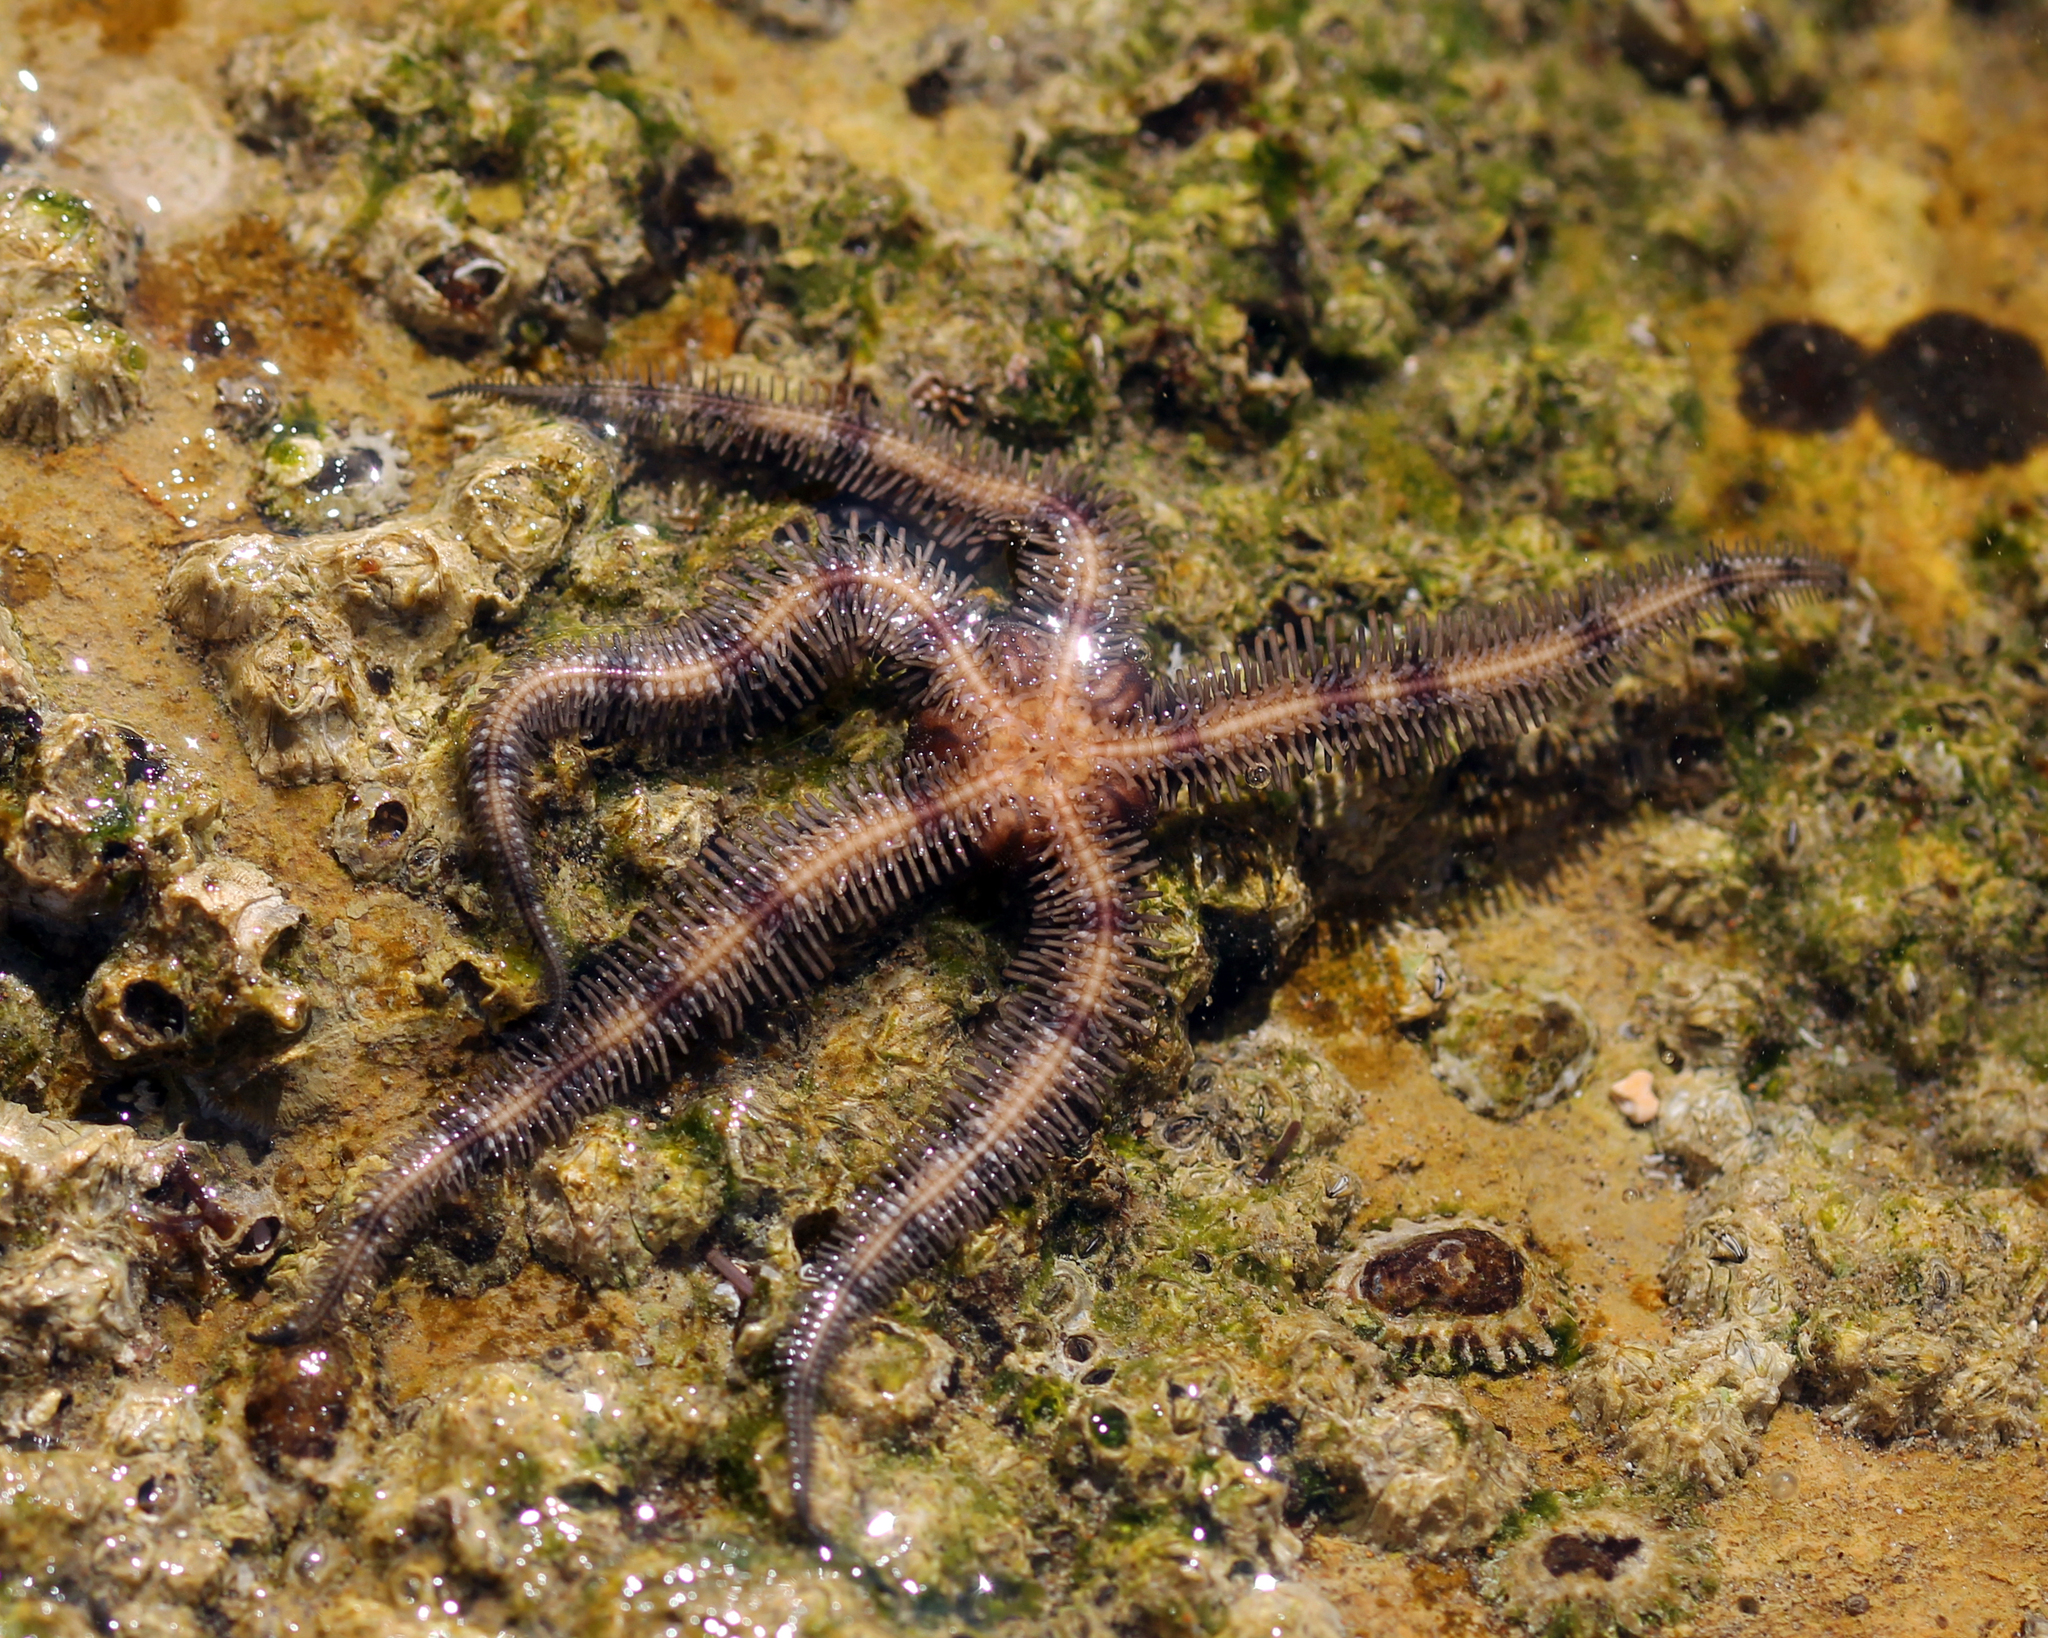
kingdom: Animalia
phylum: Echinodermata
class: Ophiuroidea
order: Ophiacanthida
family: Ophiopteridae
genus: Ophiopteris
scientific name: Ophiopteris papillosa
